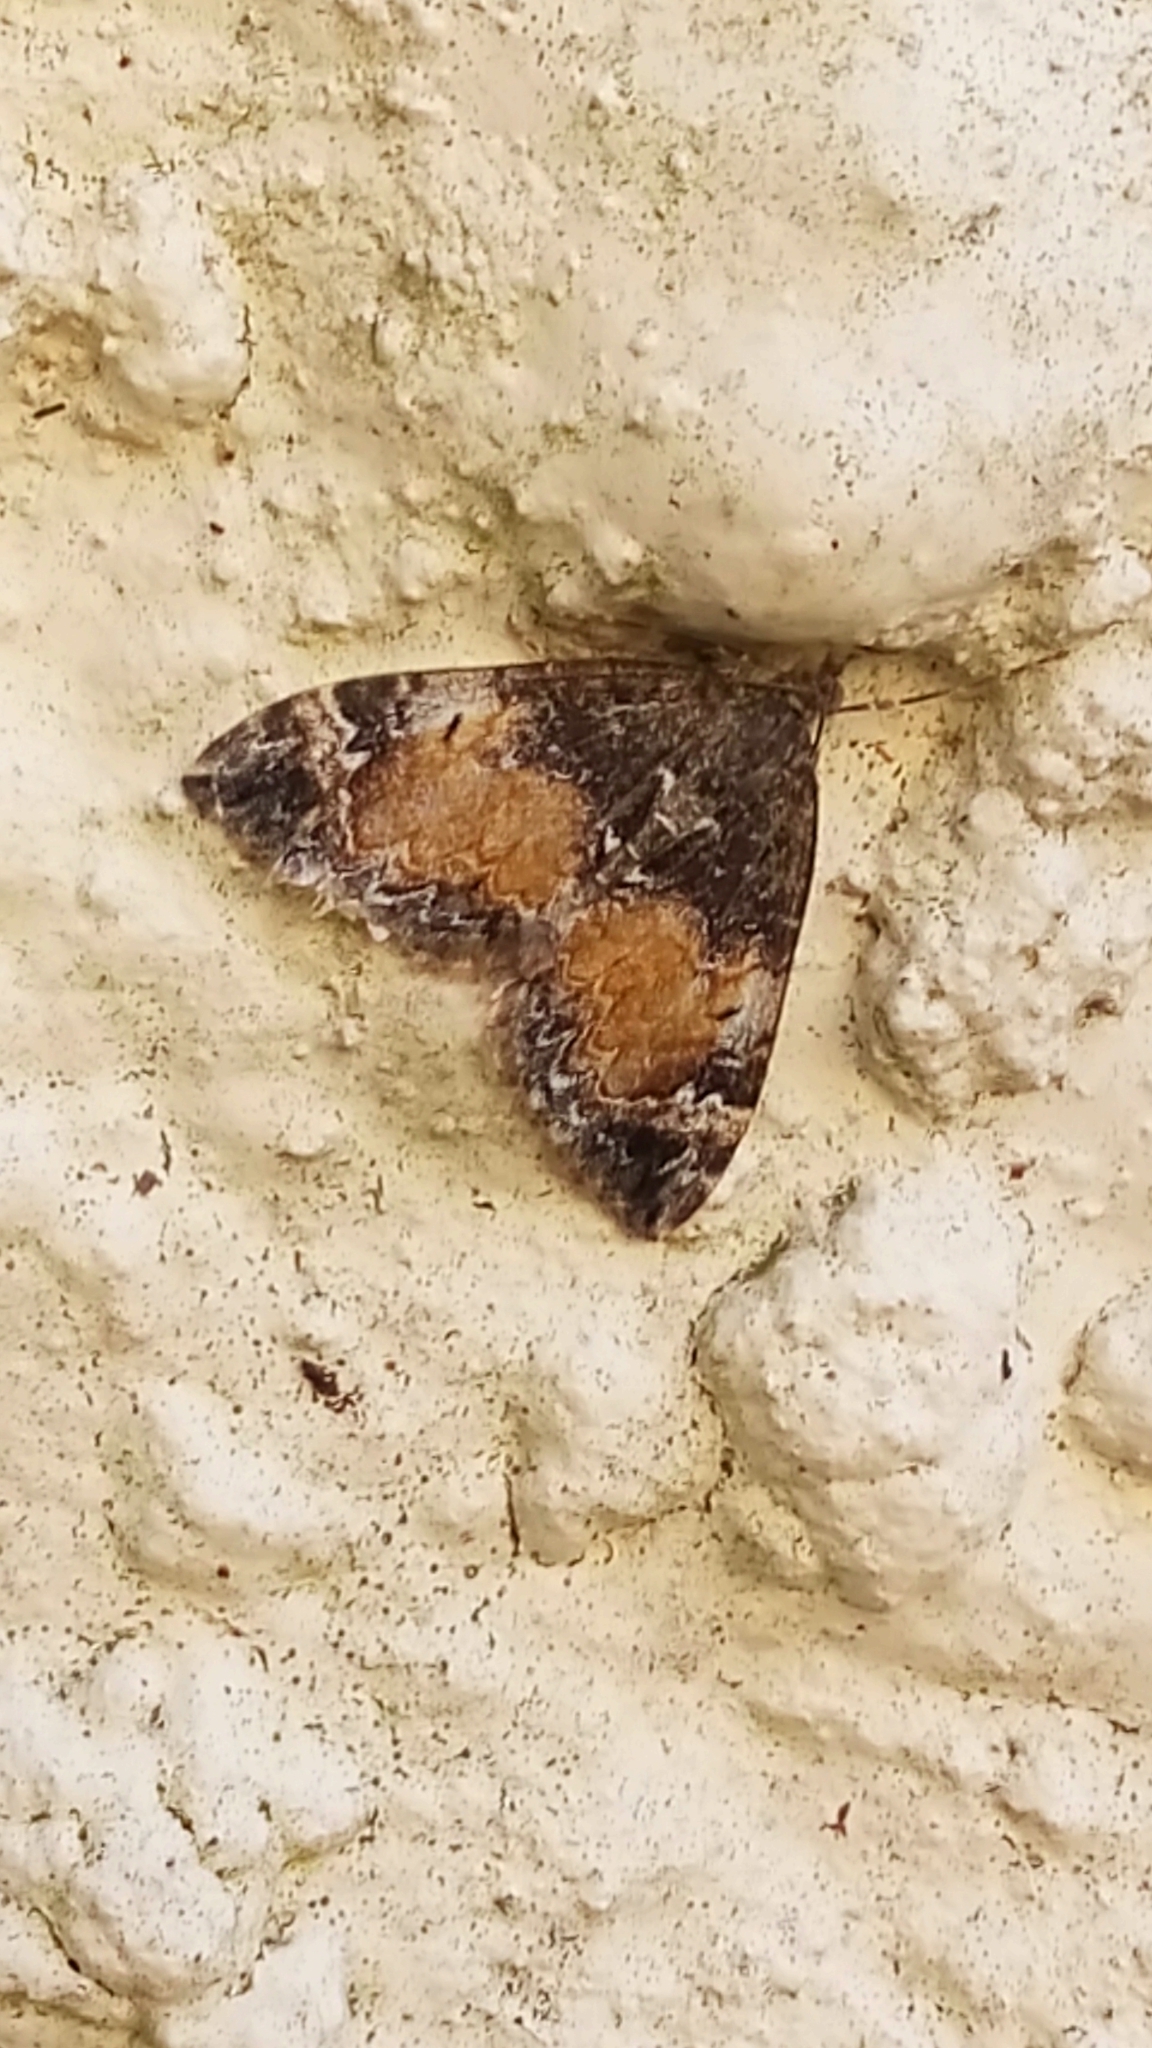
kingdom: Animalia
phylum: Arthropoda
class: Insecta
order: Lepidoptera
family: Geometridae
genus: Dysstroma
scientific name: Dysstroma truncata
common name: Common marbled carpet
